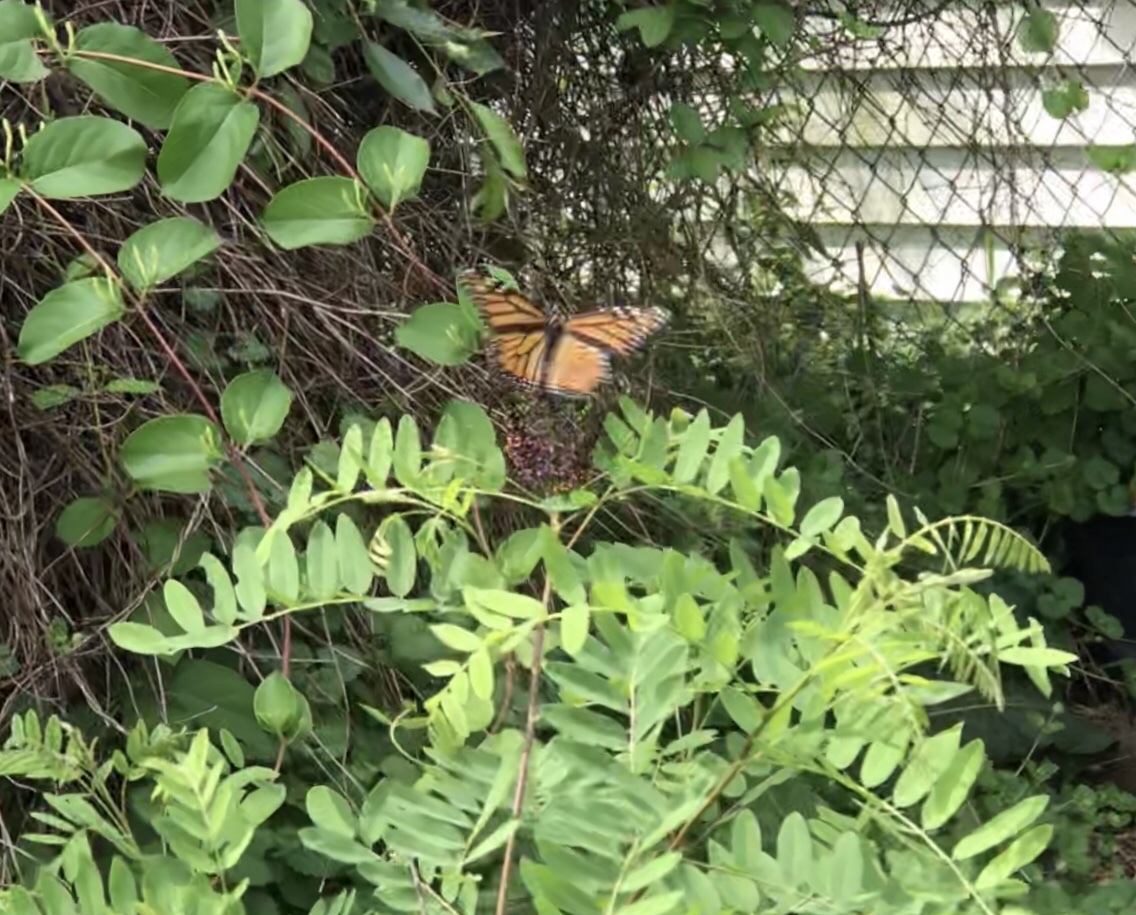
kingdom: Animalia
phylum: Arthropoda
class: Insecta
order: Lepidoptera
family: Nymphalidae
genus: Danaus
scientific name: Danaus plexippus
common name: Monarch
